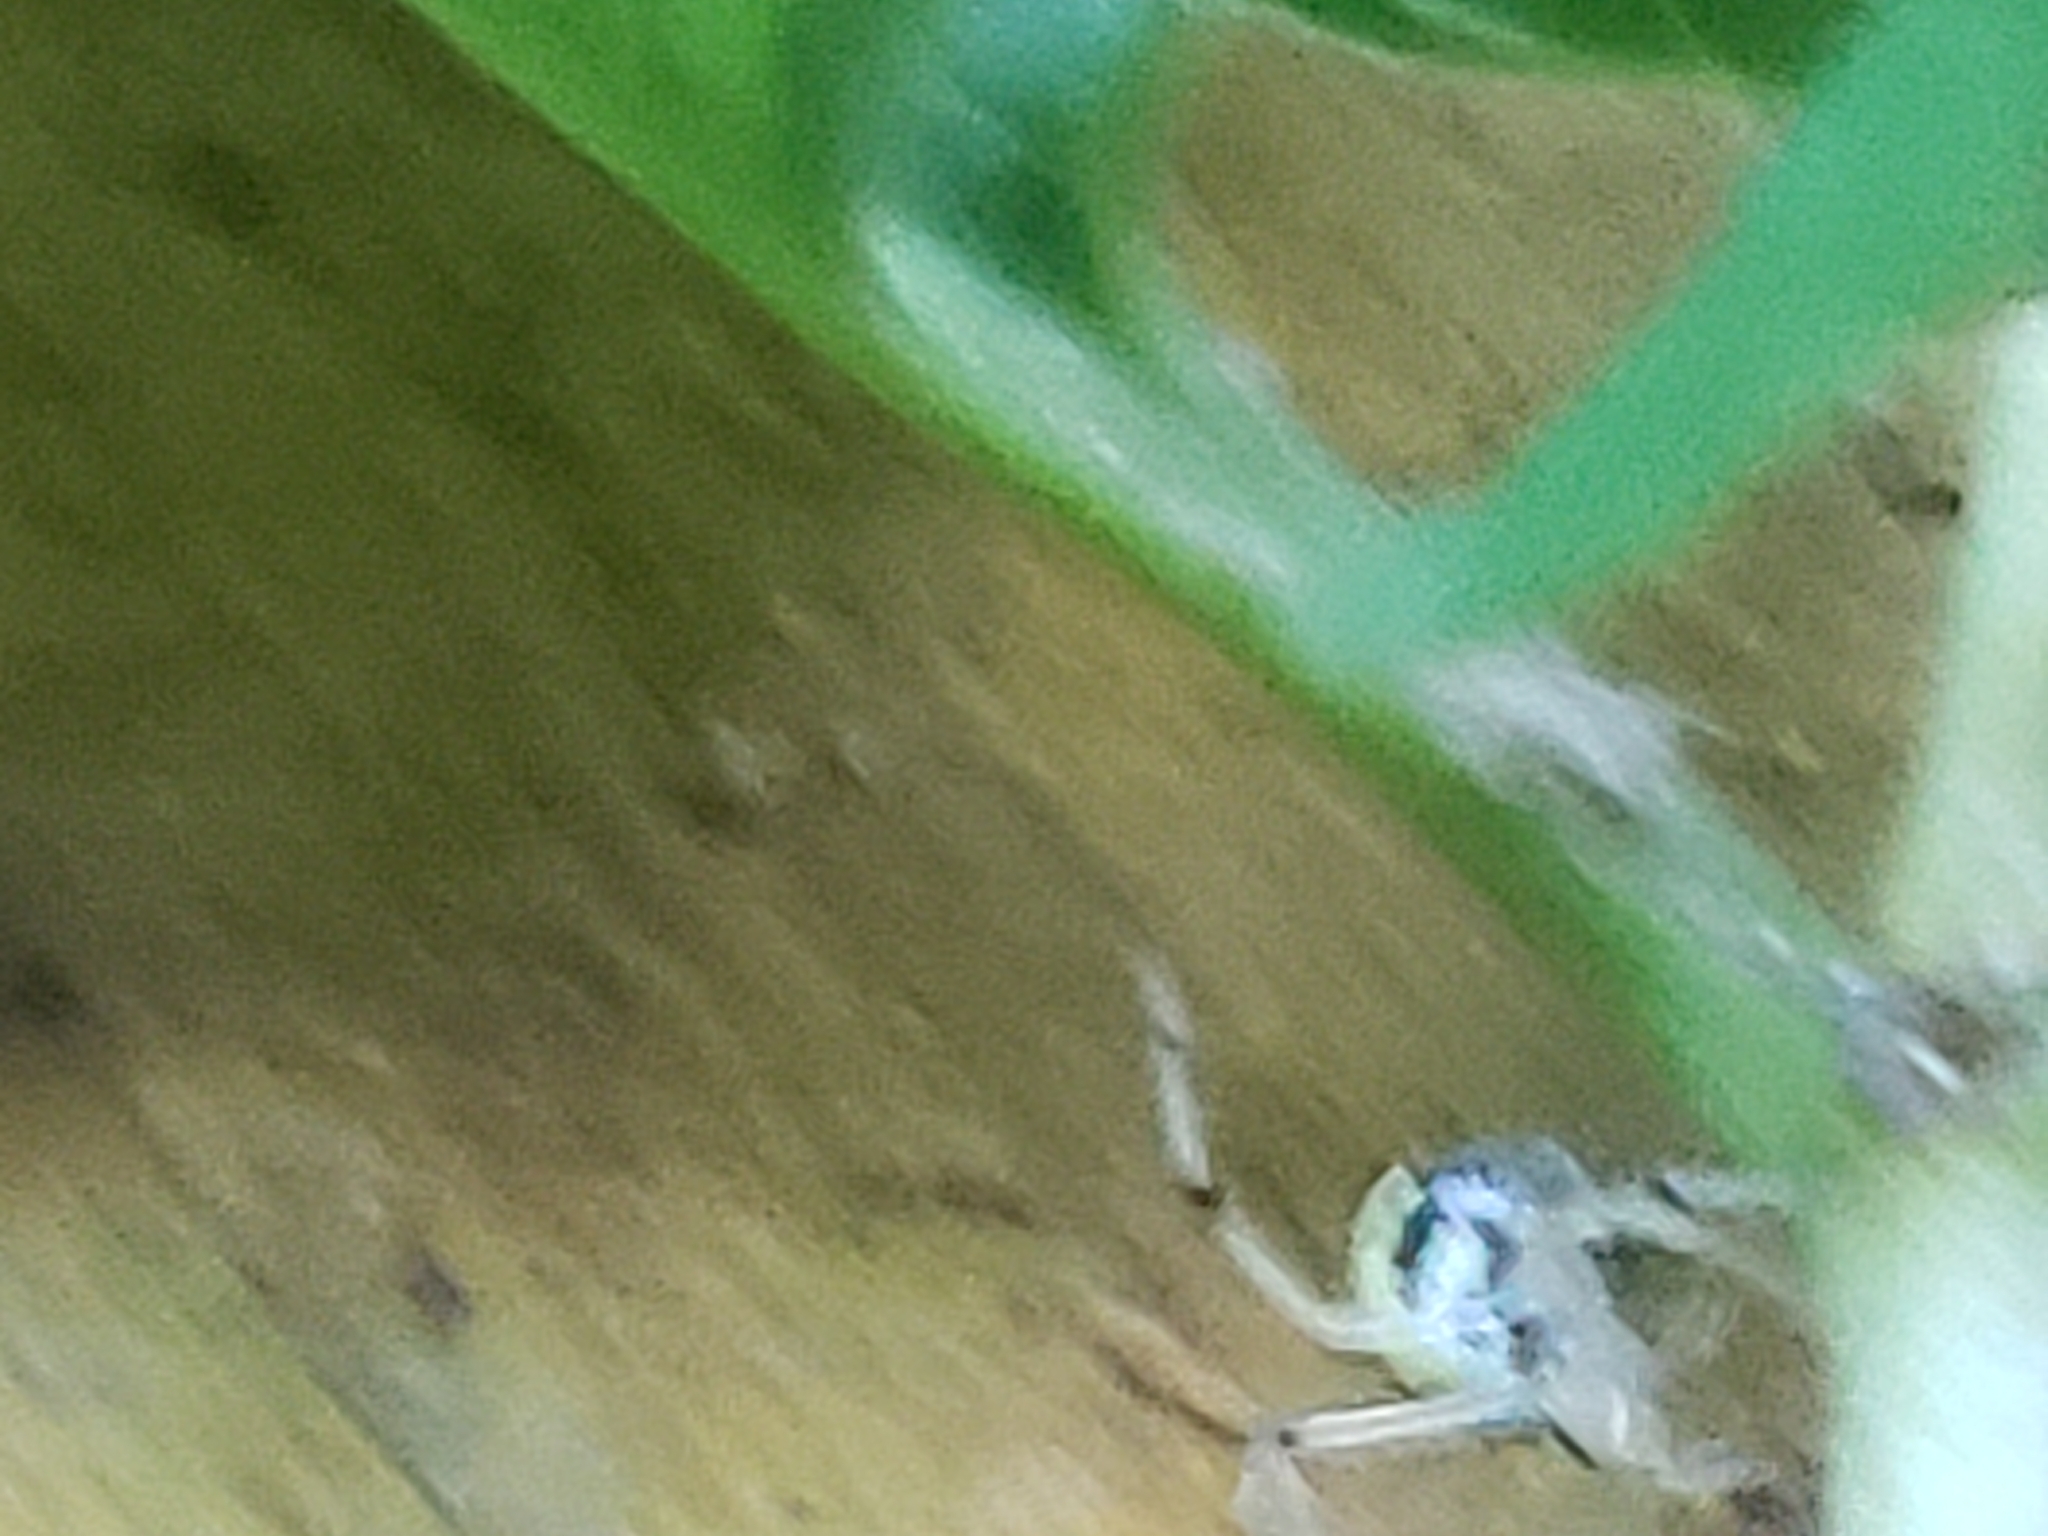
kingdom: Animalia
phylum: Arthropoda
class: Arachnida
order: Araneae
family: Theridiidae
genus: Phylloneta
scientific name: Phylloneta pictipes
